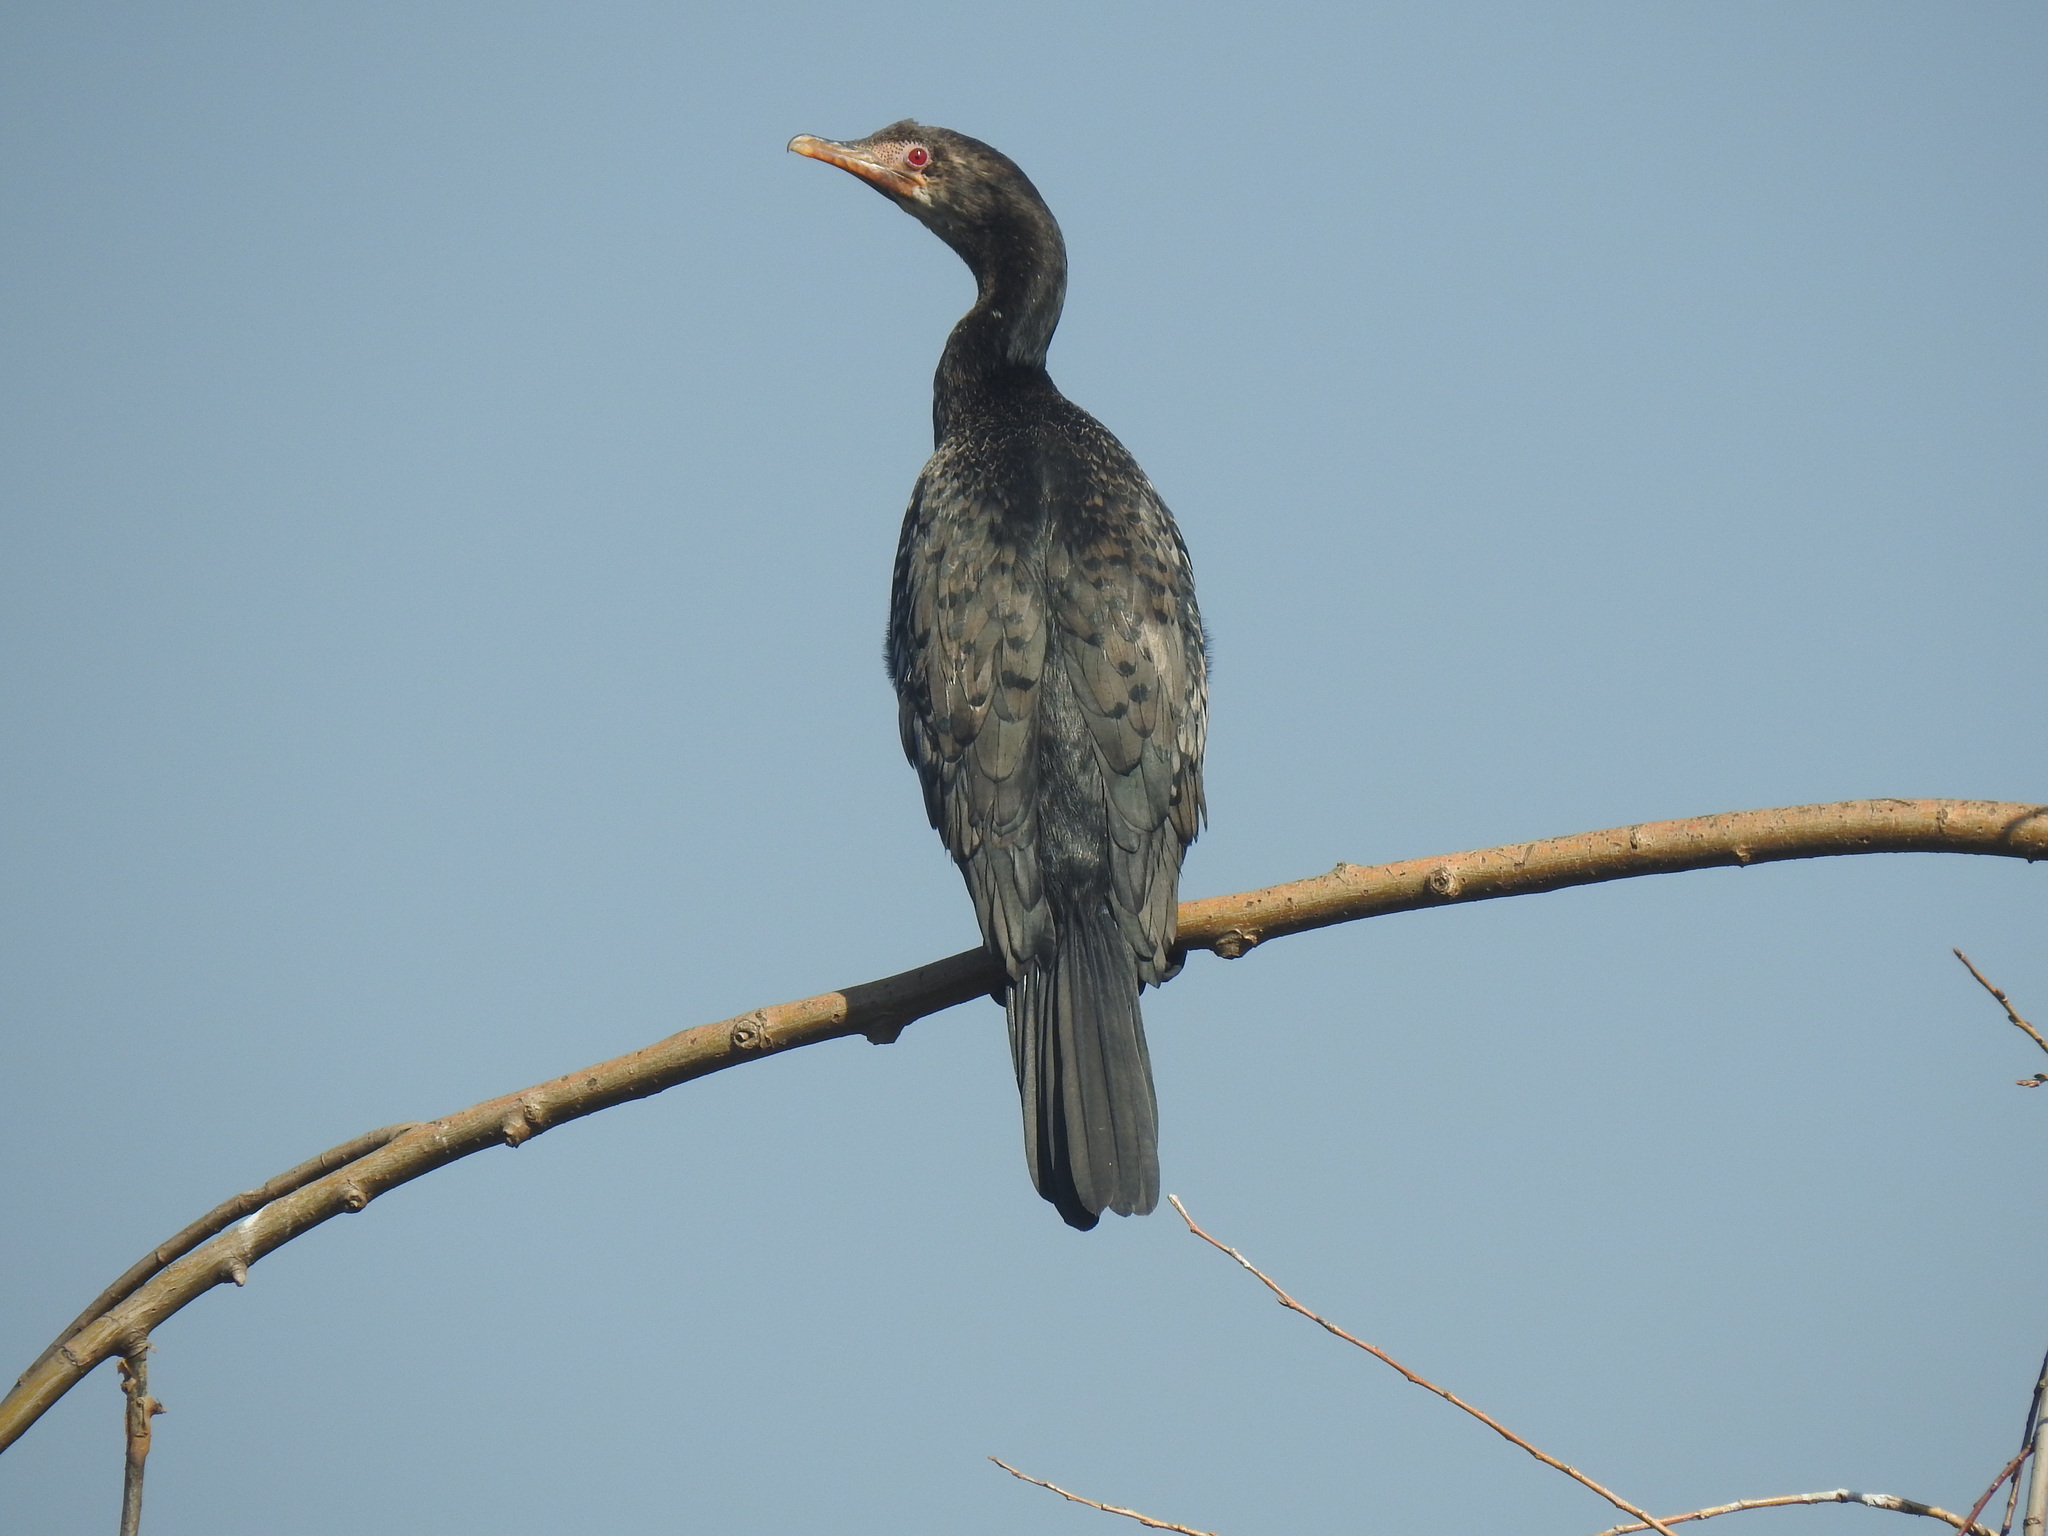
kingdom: Animalia
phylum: Chordata
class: Aves
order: Suliformes
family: Phalacrocoracidae
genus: Microcarbo
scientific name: Microcarbo africanus
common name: Long-tailed cormorant
